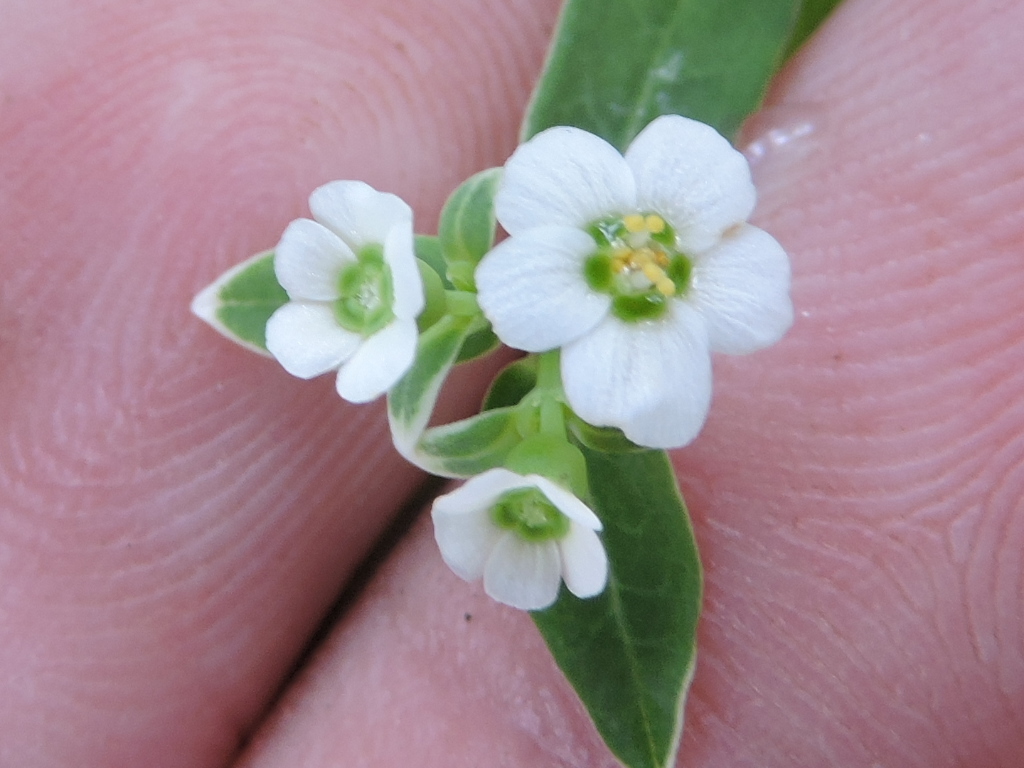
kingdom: Plantae
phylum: Tracheophyta
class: Magnoliopsida
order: Malpighiales
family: Euphorbiaceae
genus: Euphorbia
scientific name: Euphorbia corollata
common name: Flowering spurge
